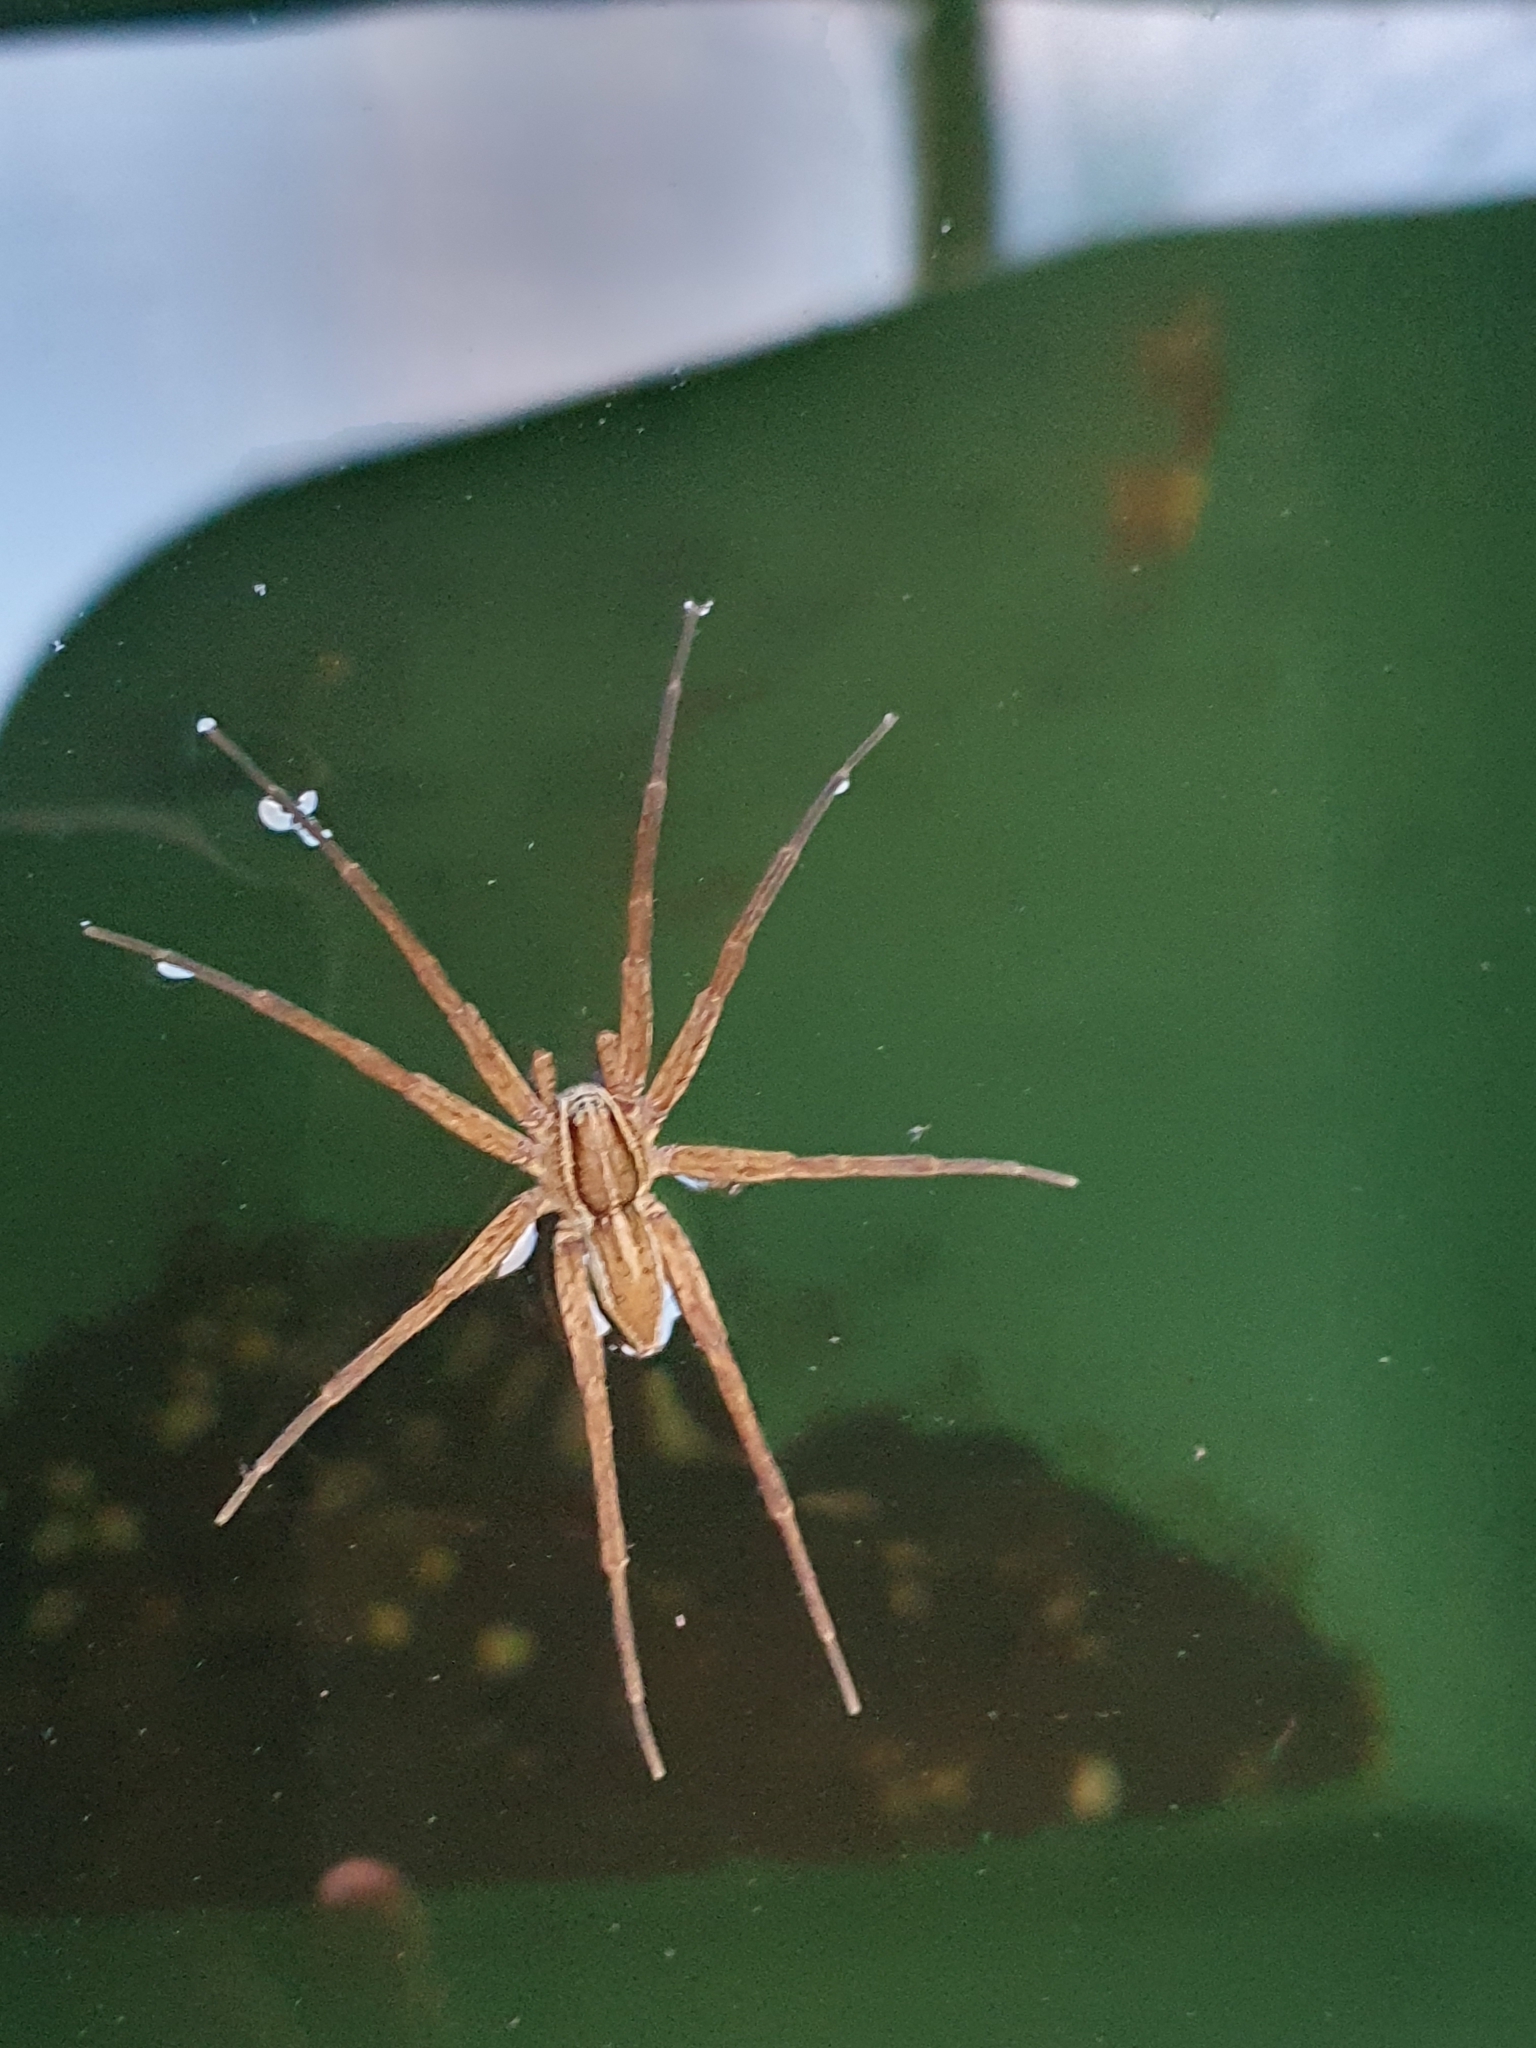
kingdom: Animalia
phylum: Arthropoda
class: Arachnida
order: Araneae
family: Pisauridae
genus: Dolomedes
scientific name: Dolomedes minor
